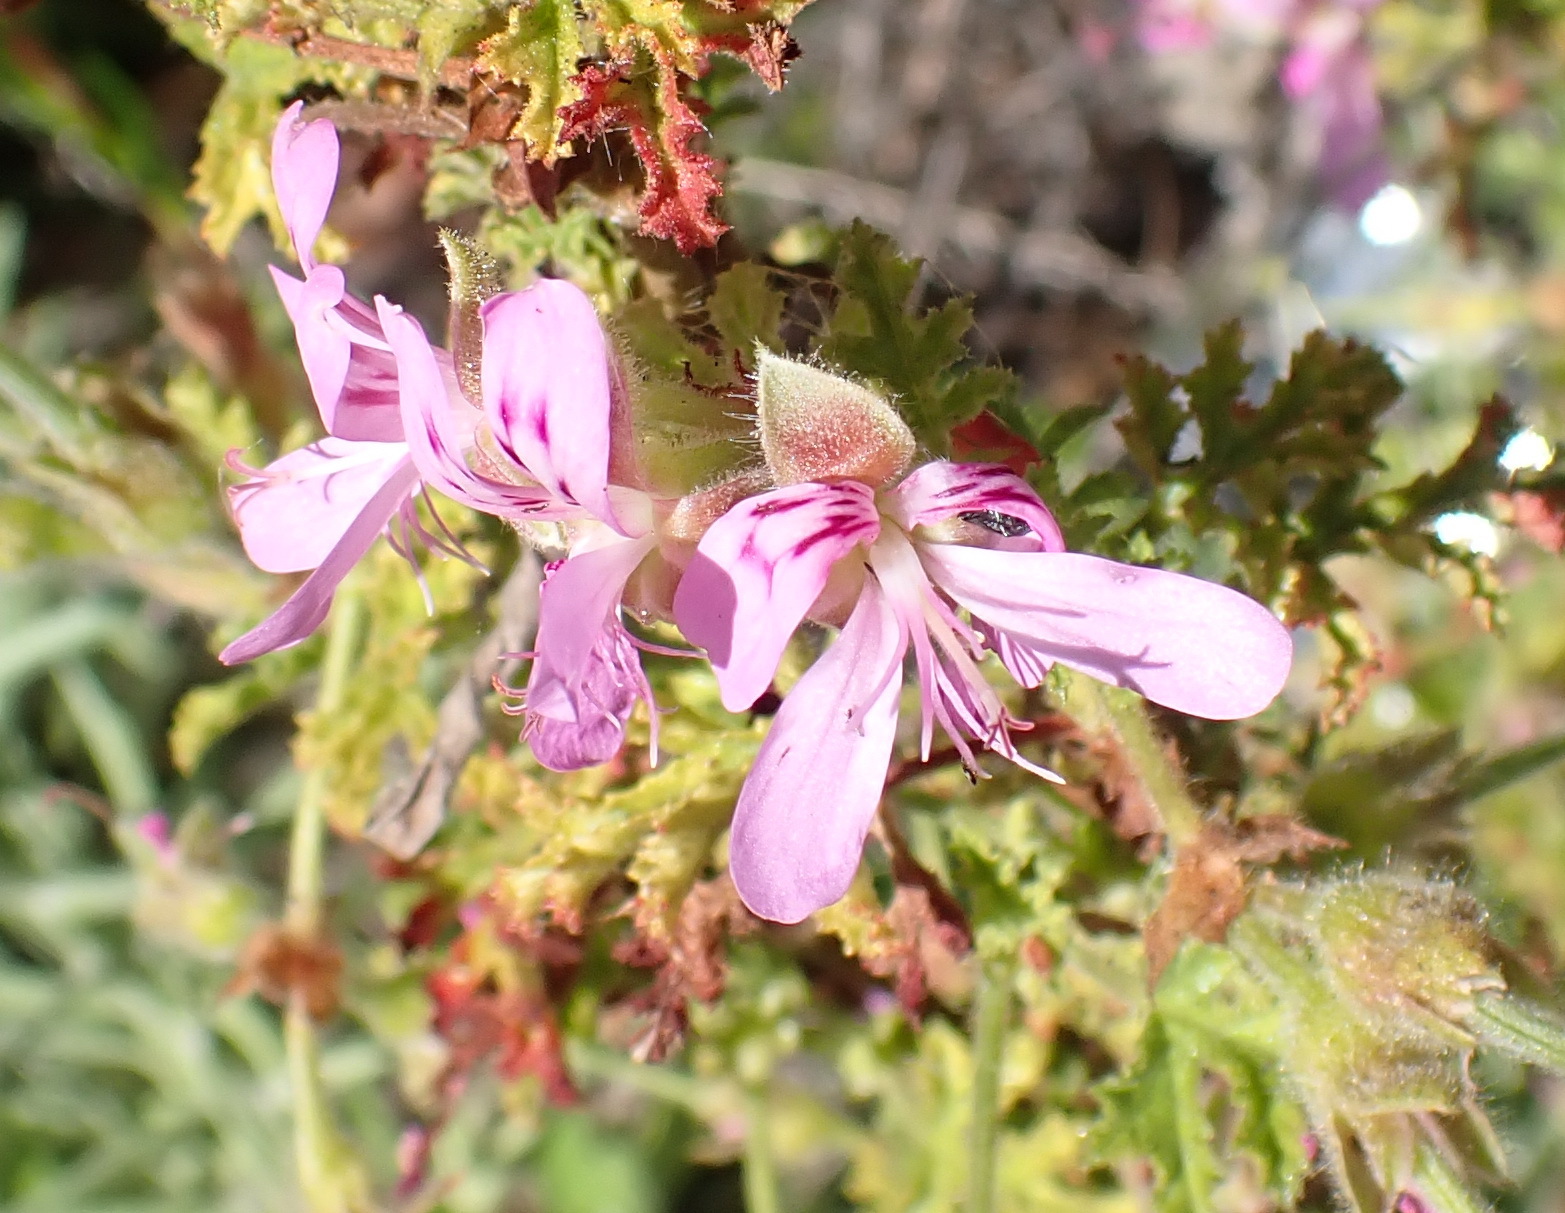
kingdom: Plantae
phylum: Tracheophyta
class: Magnoliopsida
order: Geraniales
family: Geraniaceae
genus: Pelargonium
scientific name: Pelargonium quercifolium
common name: Oakleaf geranium
